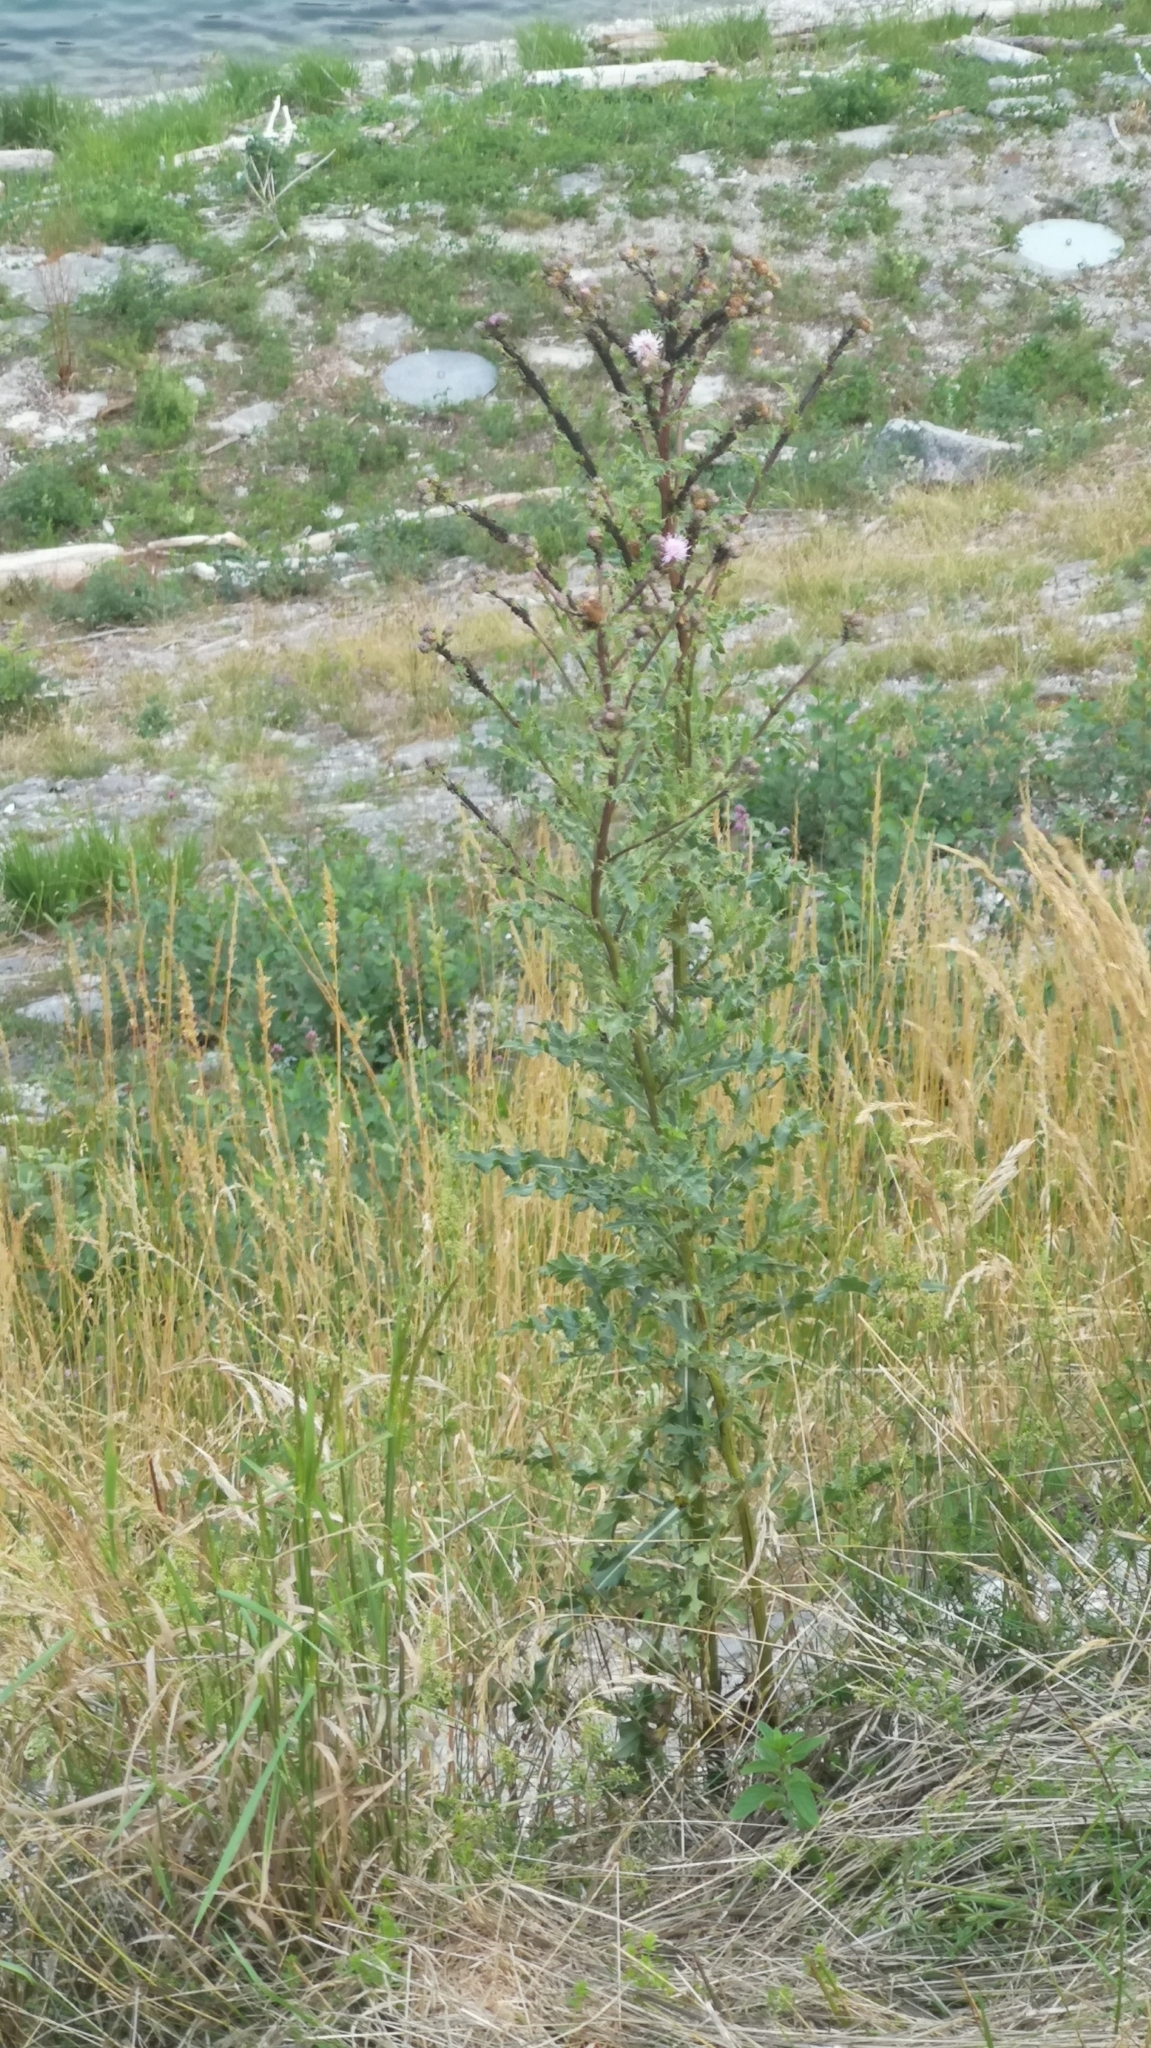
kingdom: Plantae
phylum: Tracheophyta
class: Magnoliopsida
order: Asterales
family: Asteraceae
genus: Cirsium
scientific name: Cirsium arvense
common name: Creeping thistle
